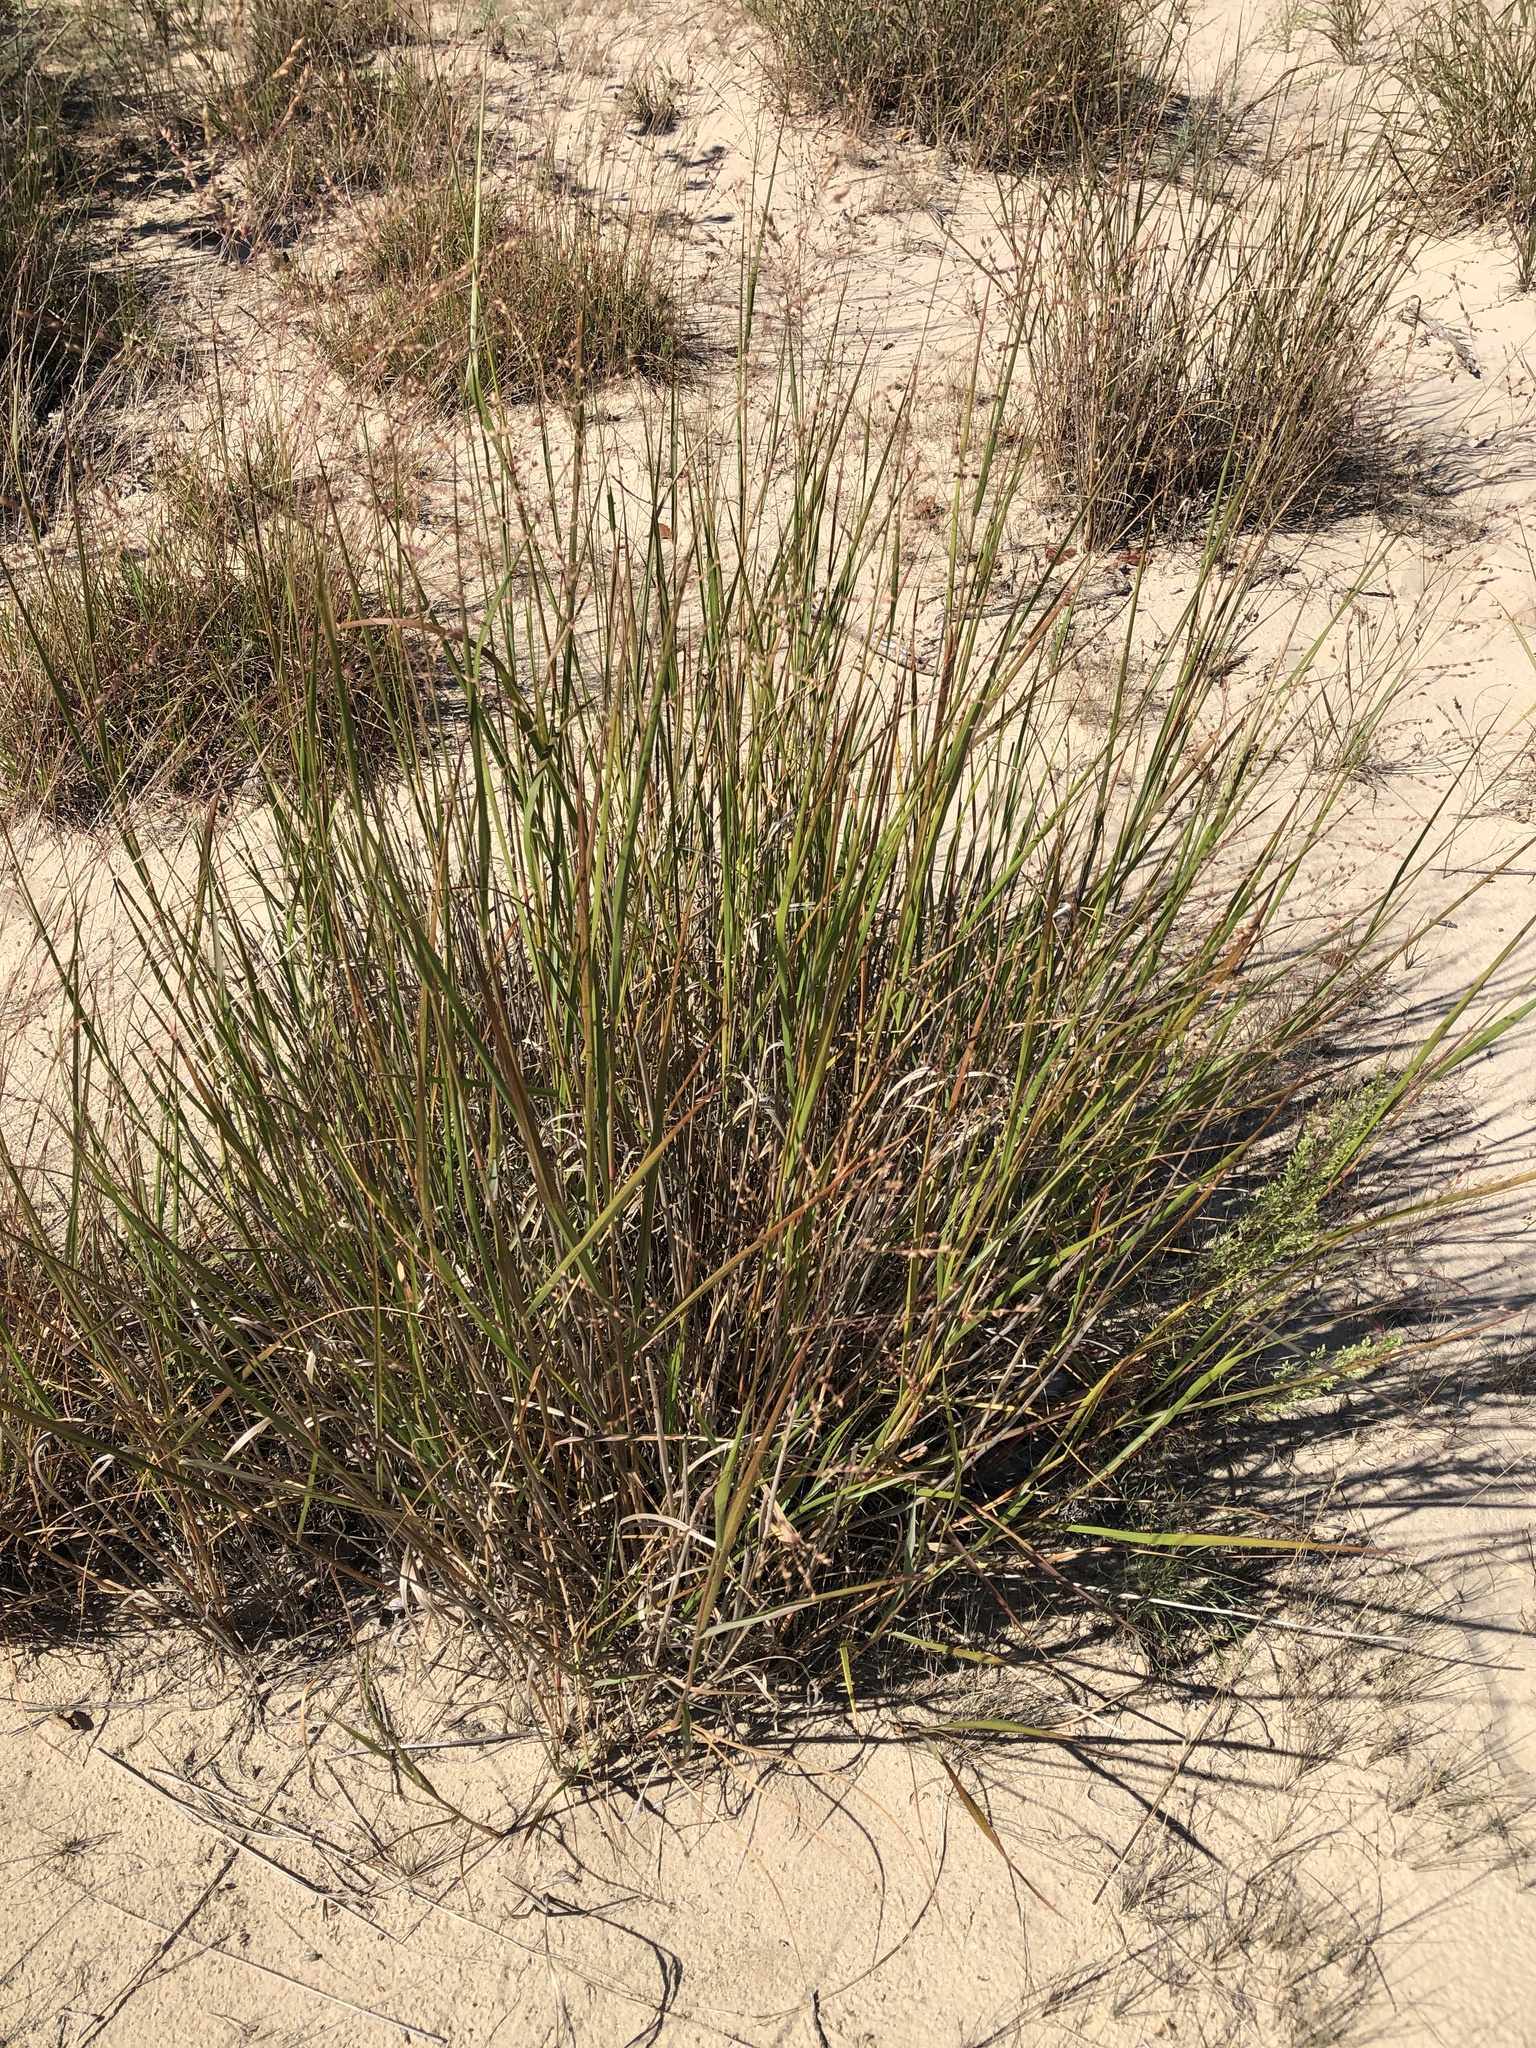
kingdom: Plantae
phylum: Tracheophyta
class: Liliopsida
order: Poales
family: Poaceae
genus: Panicum
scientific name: Panicum virgatum
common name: Switchgrass
